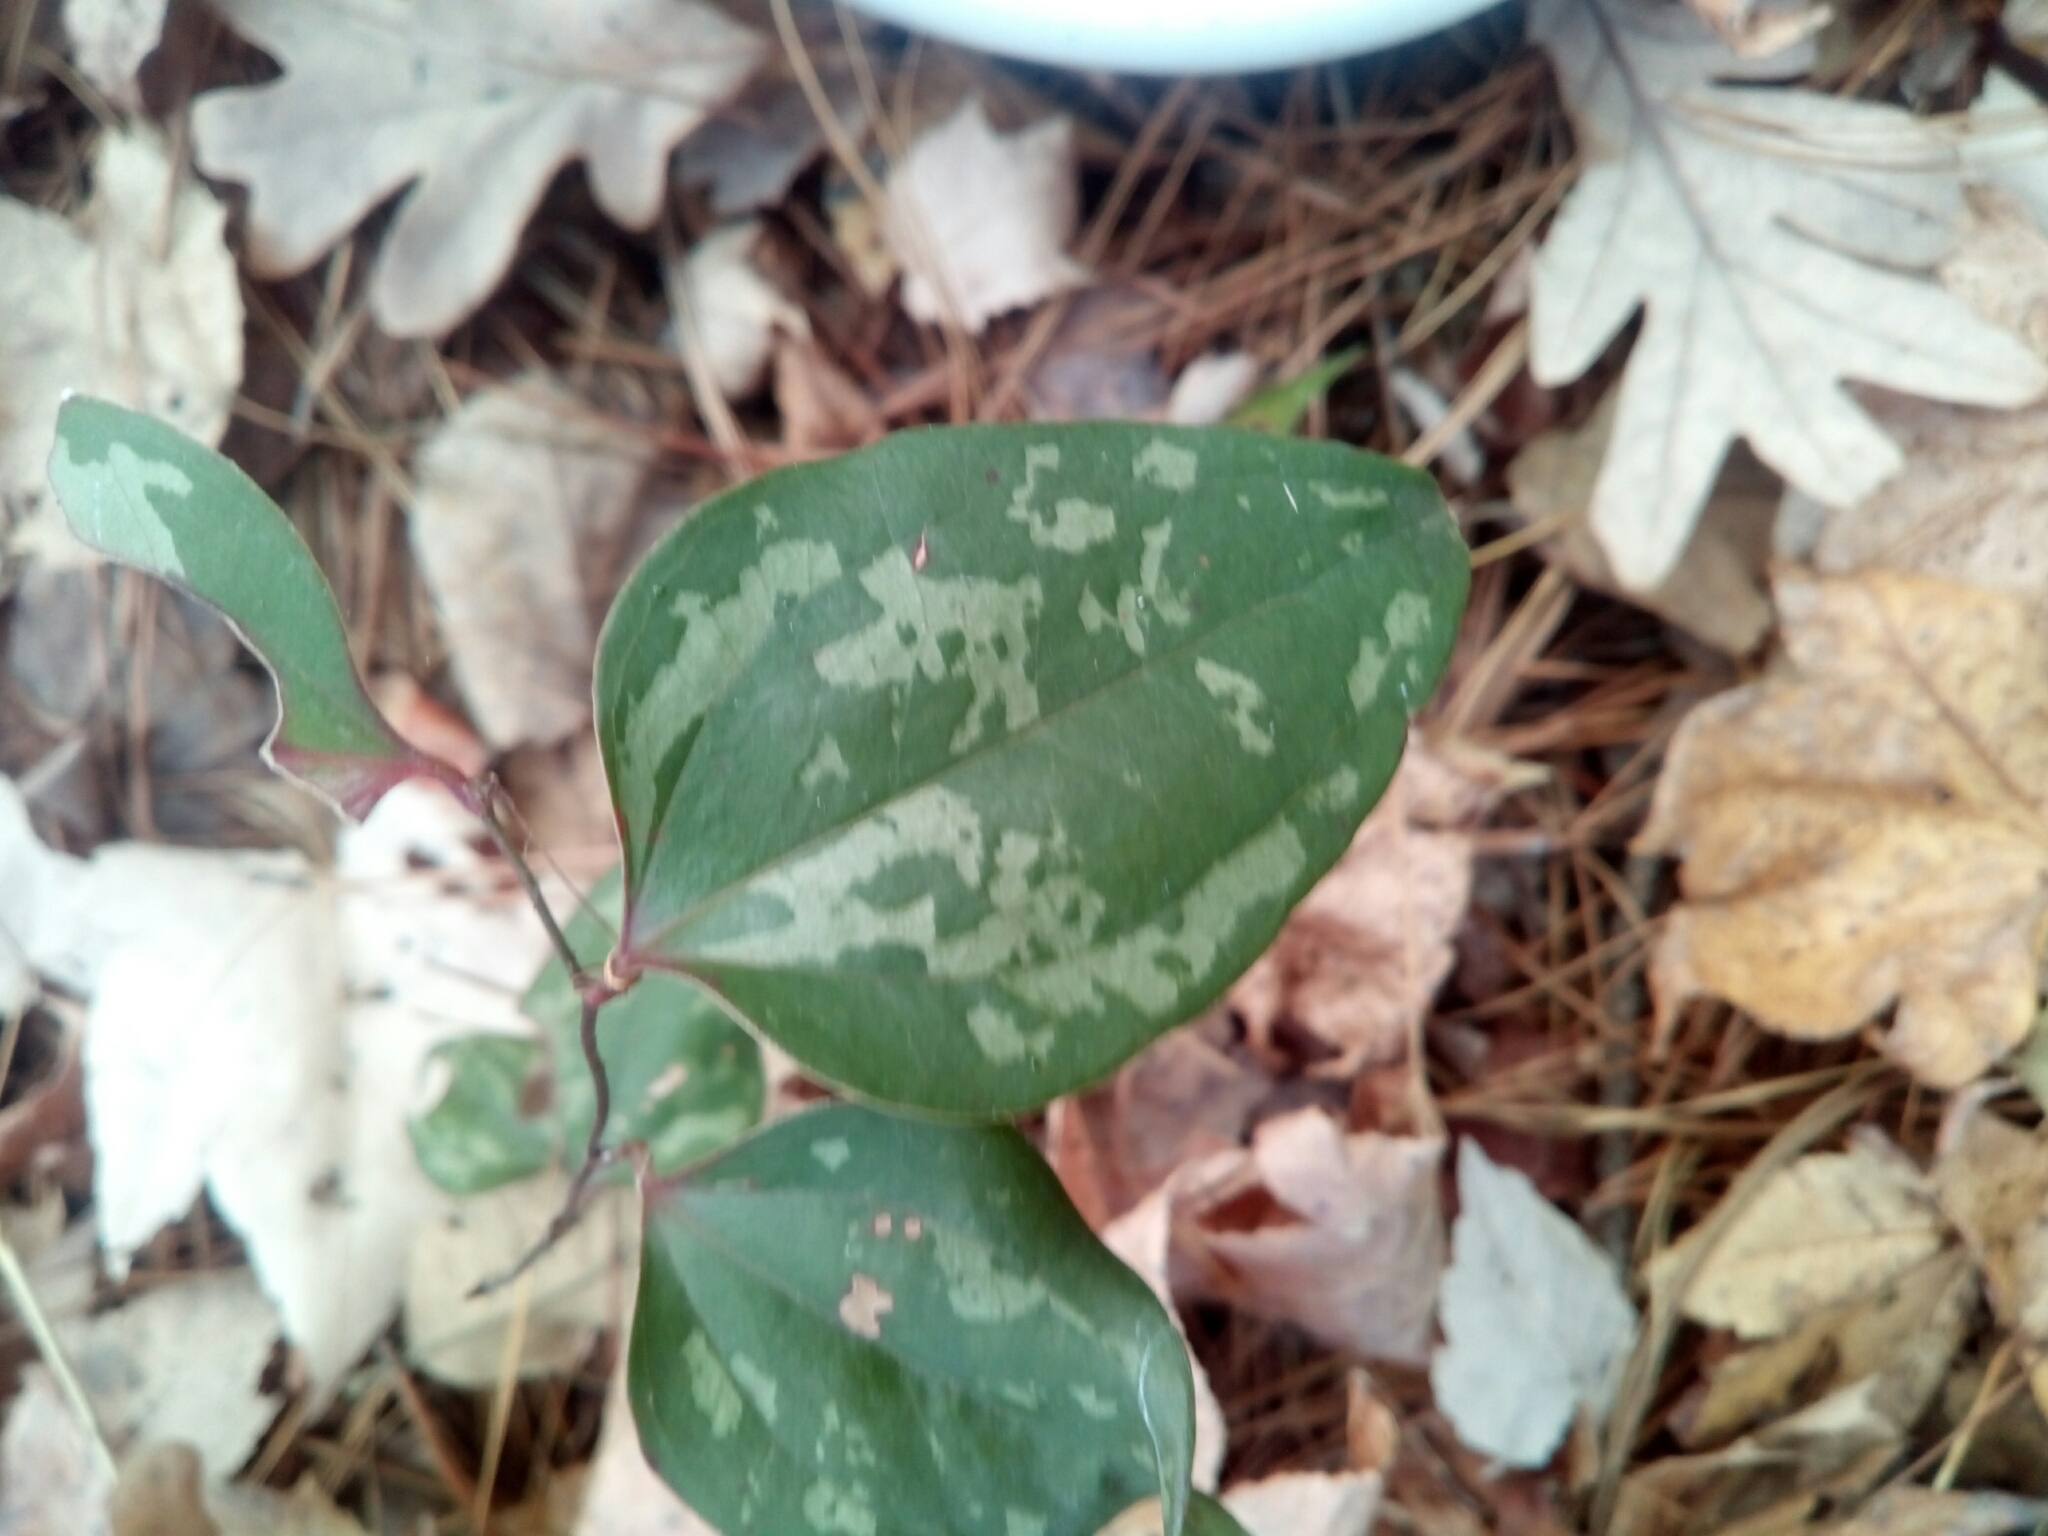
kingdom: Plantae
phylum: Tracheophyta
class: Liliopsida
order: Liliales
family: Smilacaceae
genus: Smilax
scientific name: Smilax glauca
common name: Cat greenbrier
